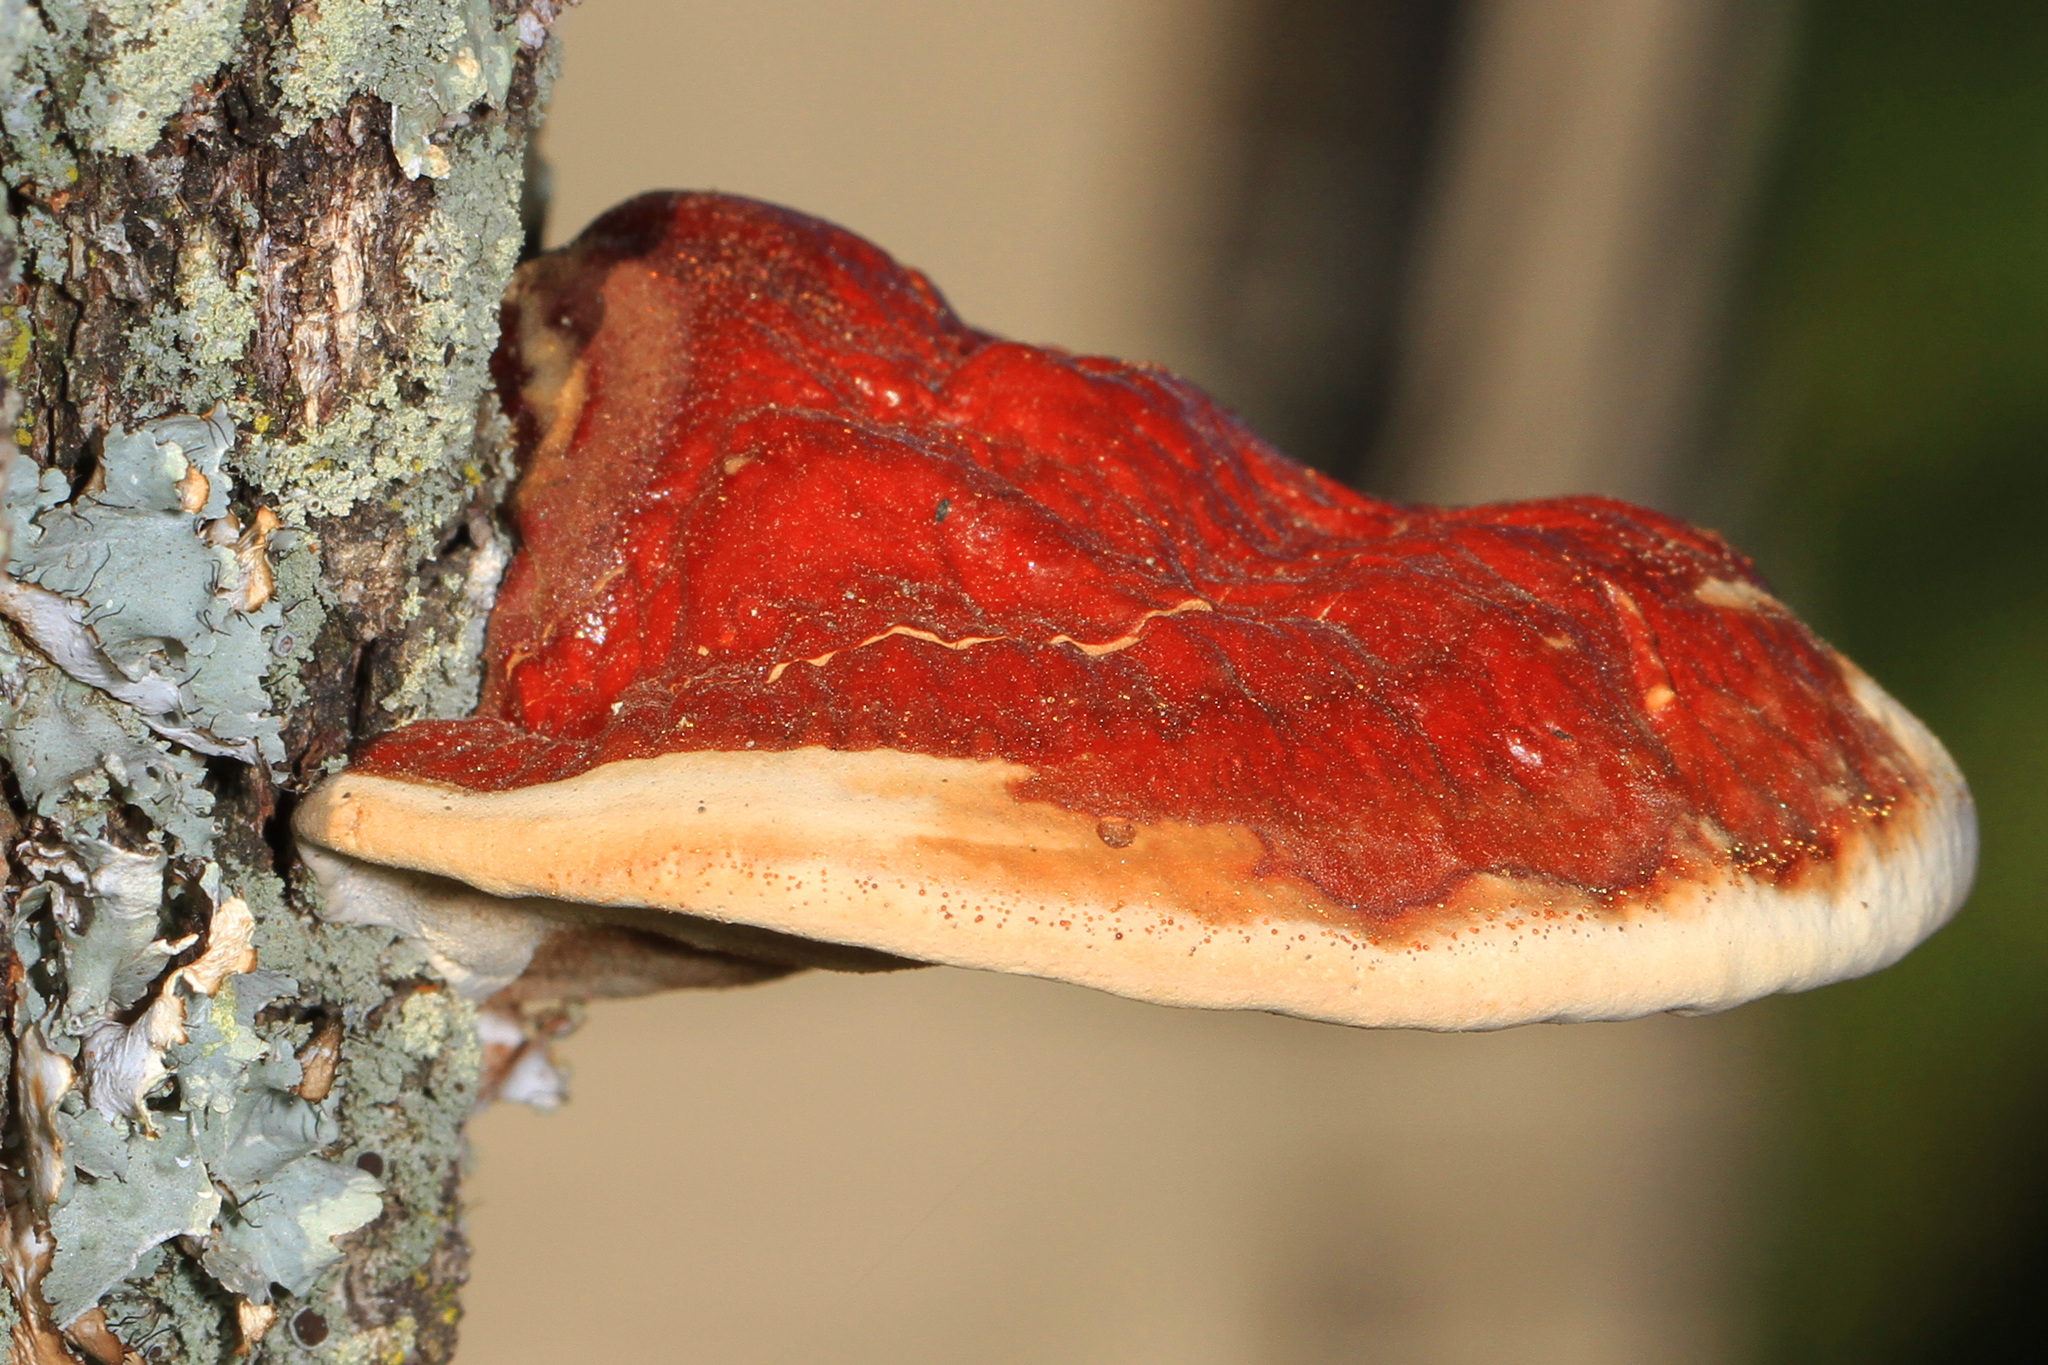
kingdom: Fungi
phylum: Basidiomycota
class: Agaricomycetes
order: Polyporales
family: Polyporaceae
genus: Ganoderma
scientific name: Ganoderma resinaceum
